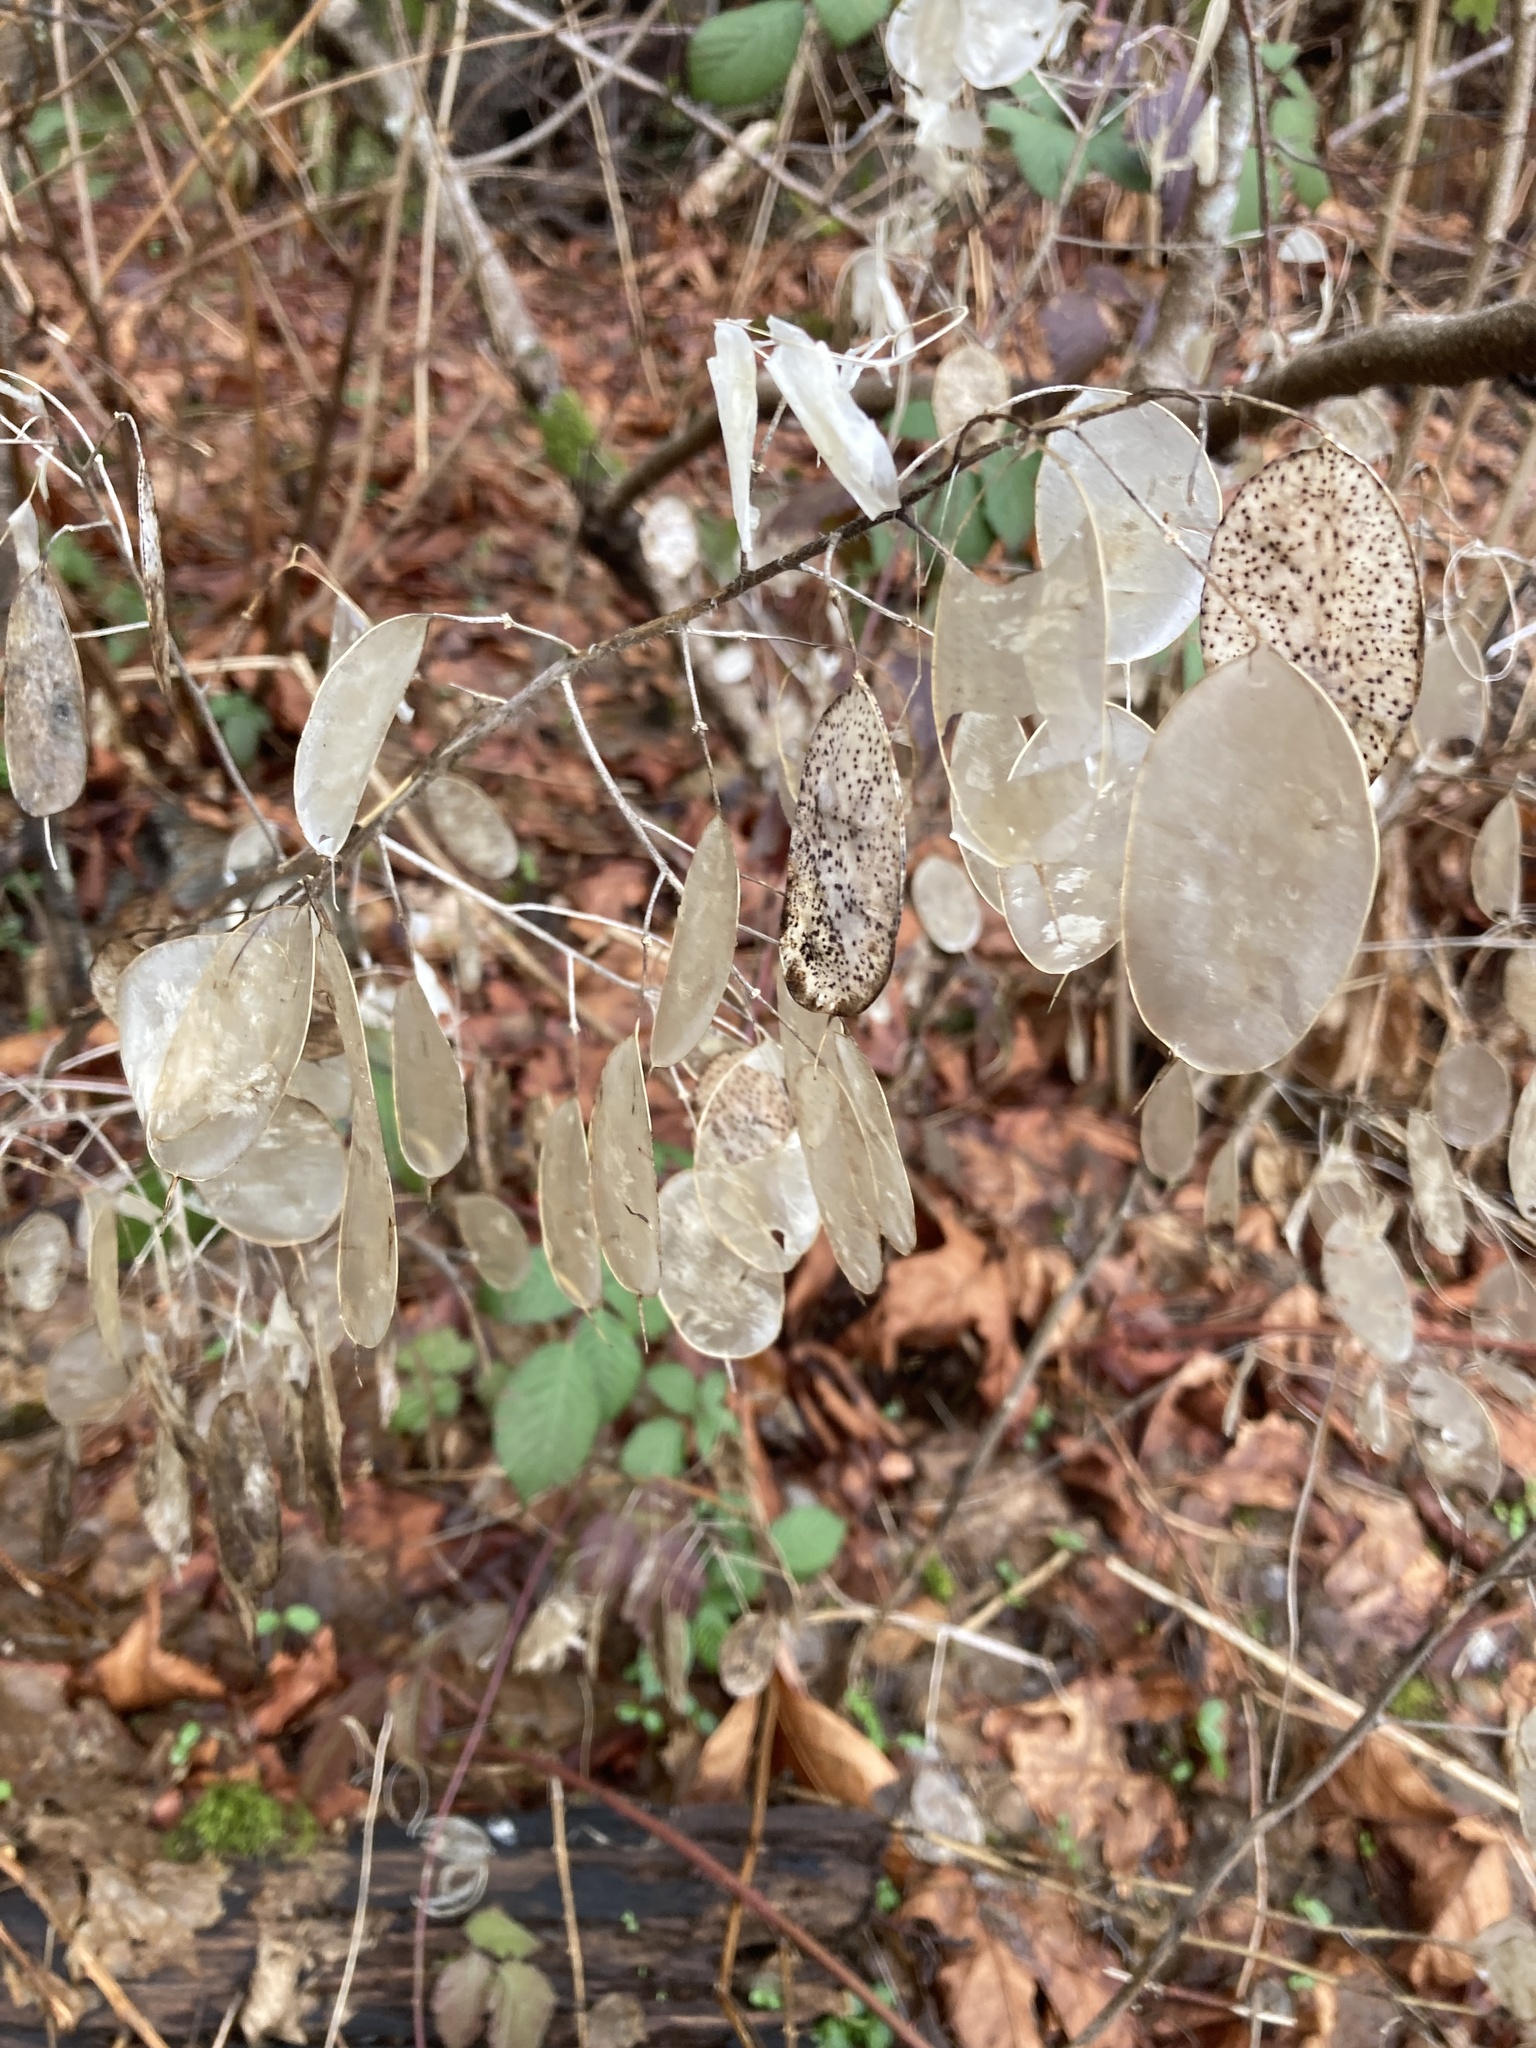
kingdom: Plantae
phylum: Tracheophyta
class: Magnoliopsida
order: Brassicales
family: Brassicaceae
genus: Lunaria
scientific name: Lunaria annua
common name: Honesty
